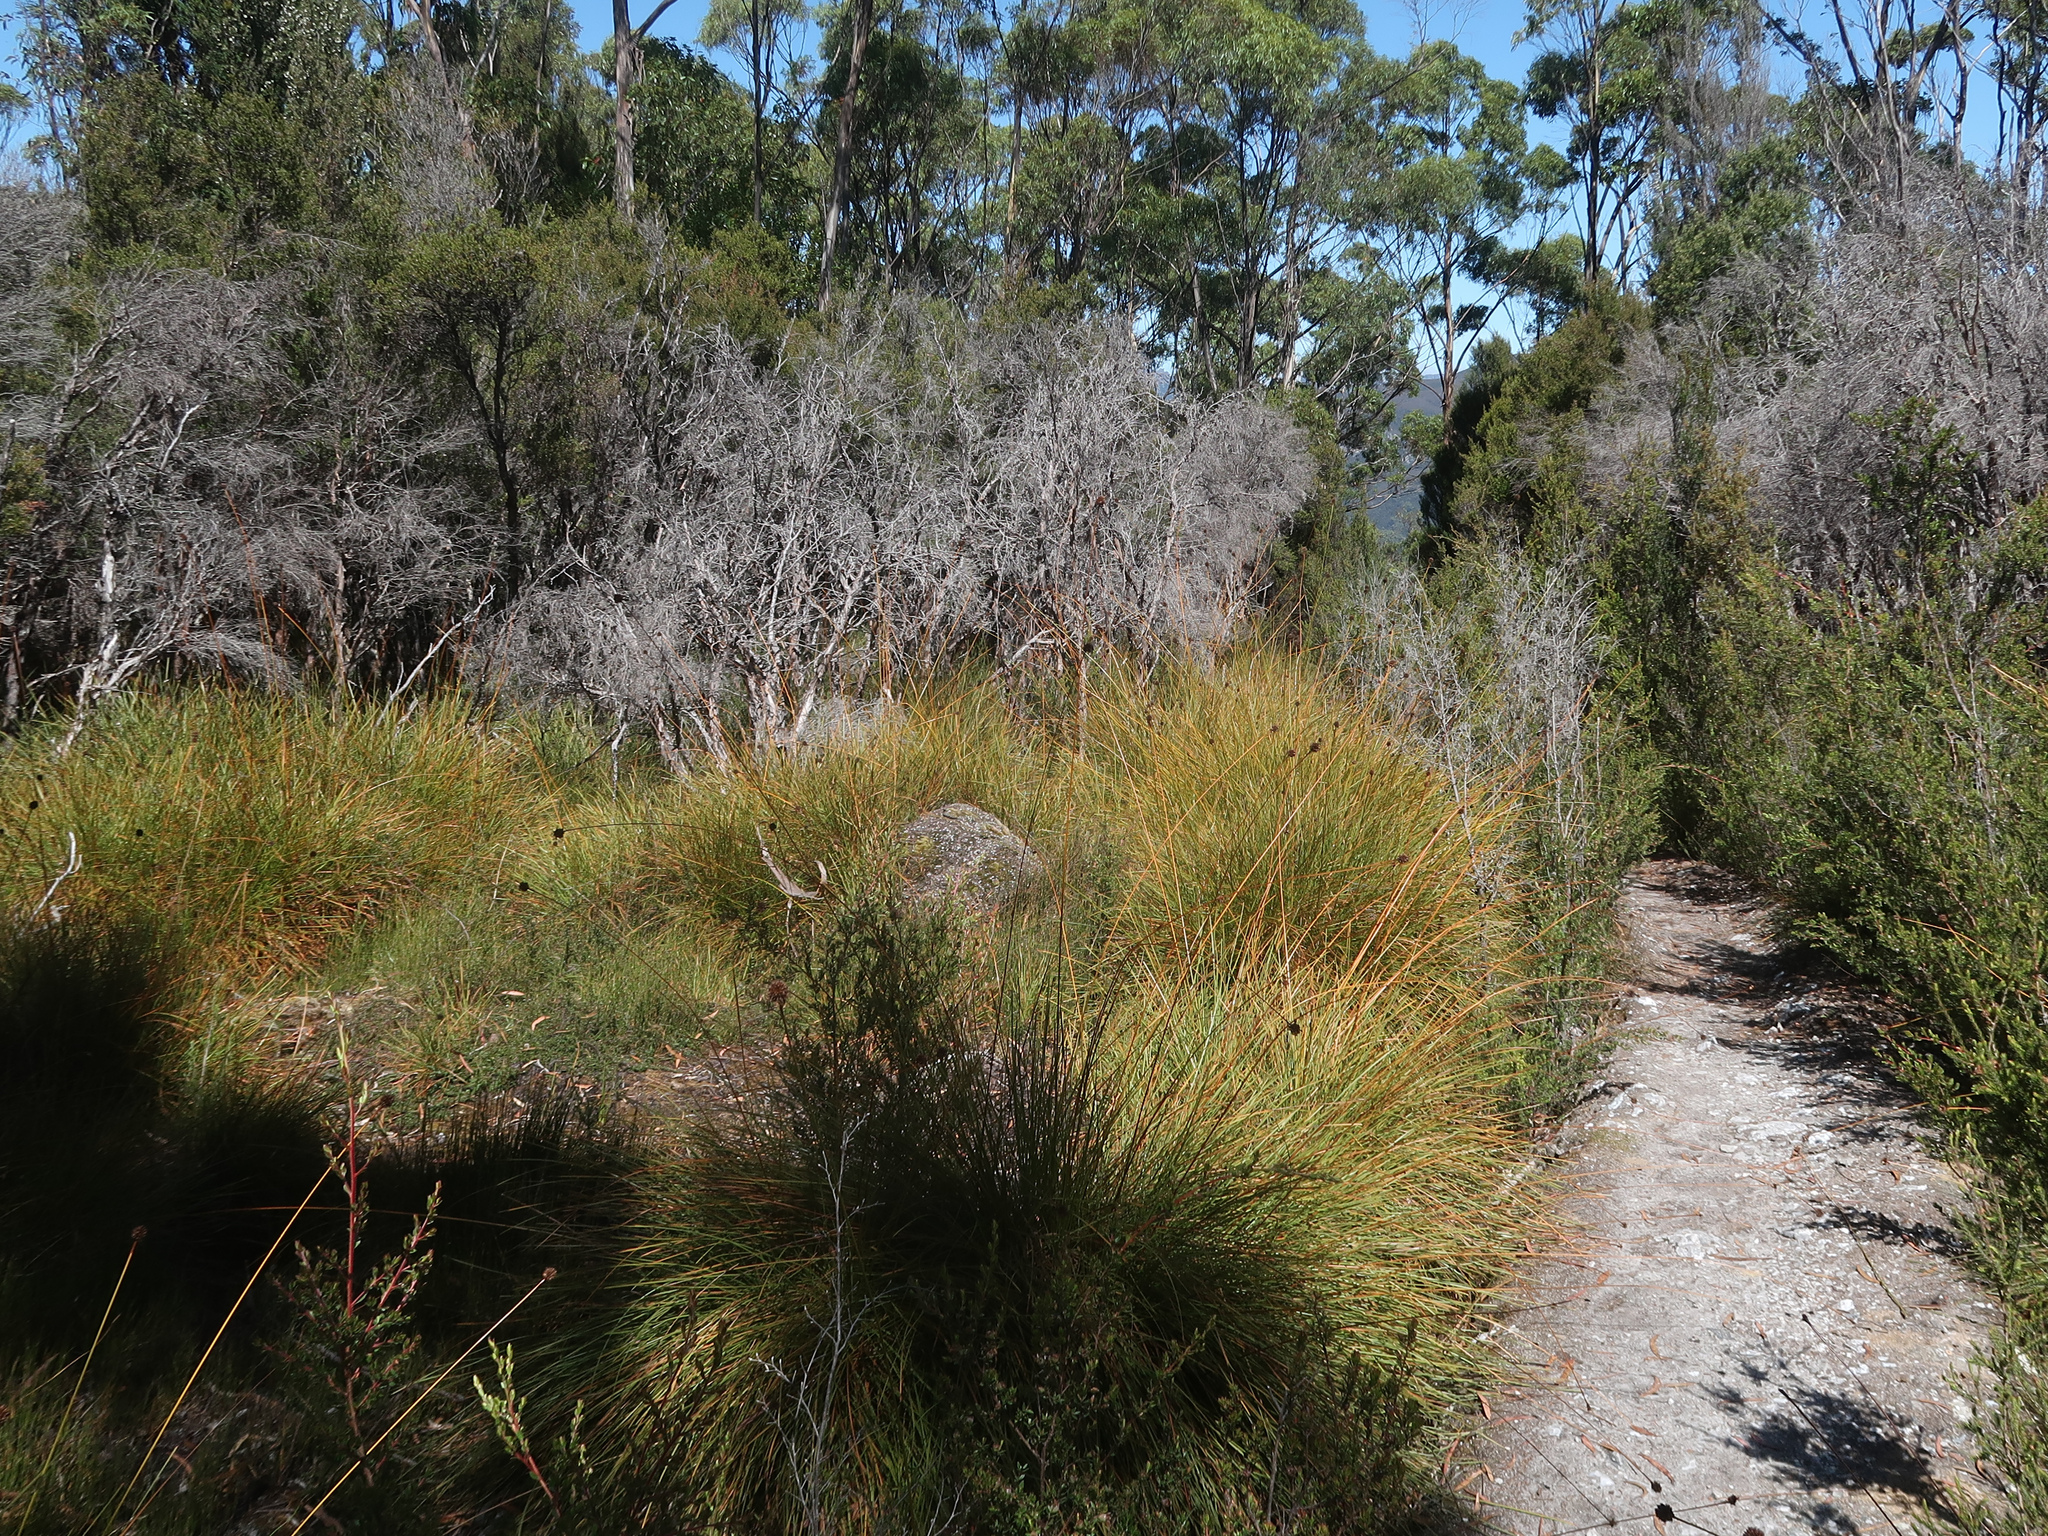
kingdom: Plantae
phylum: Tracheophyta
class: Liliopsida
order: Poales
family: Cyperaceae
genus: Gymnoschoenus
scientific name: Gymnoschoenus sphaerocephalus
